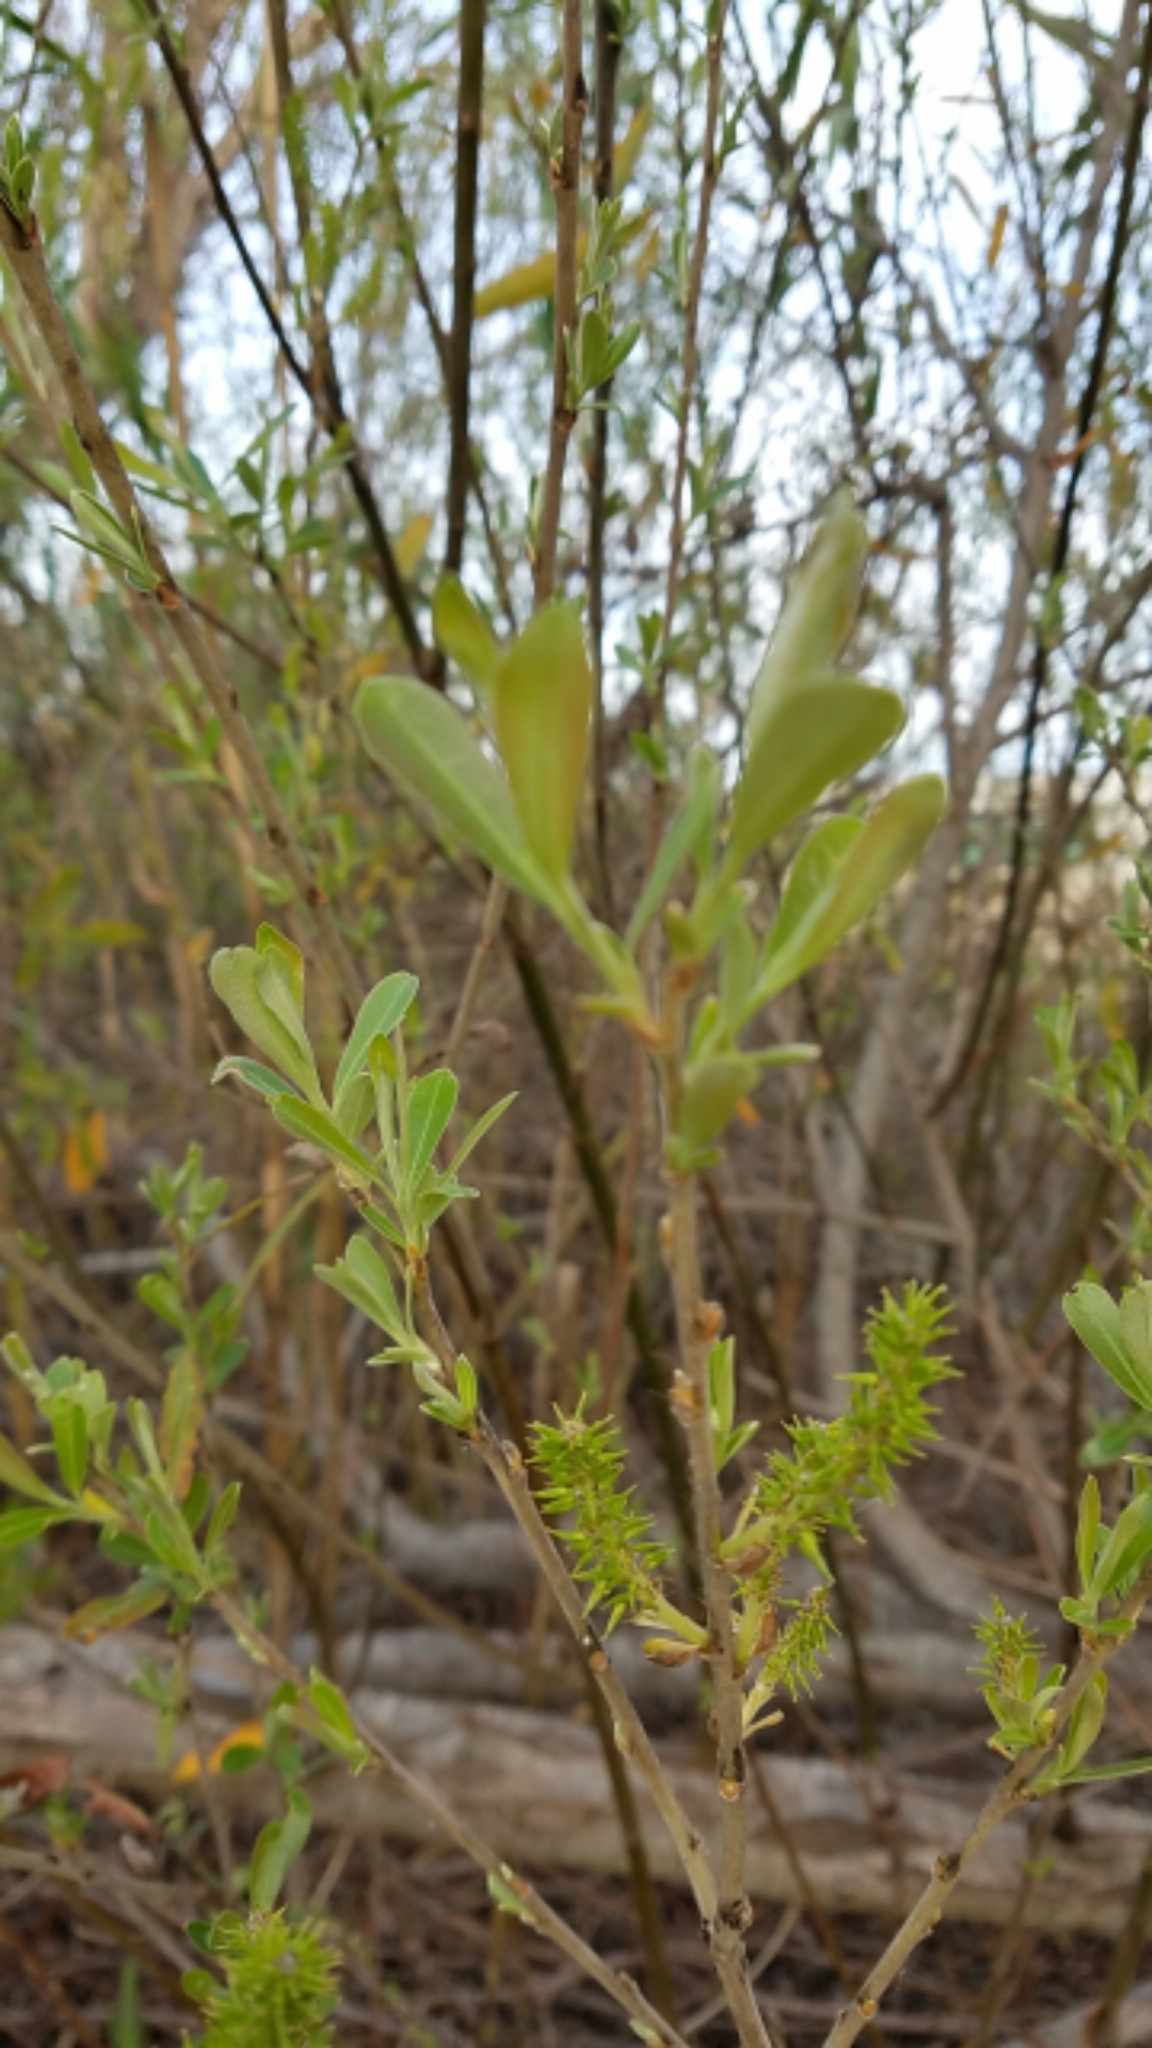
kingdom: Plantae
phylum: Tracheophyta
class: Magnoliopsida
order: Malpighiales
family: Salicaceae
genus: Salix
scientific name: Salix lasiolepis
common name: Arroyo willow
